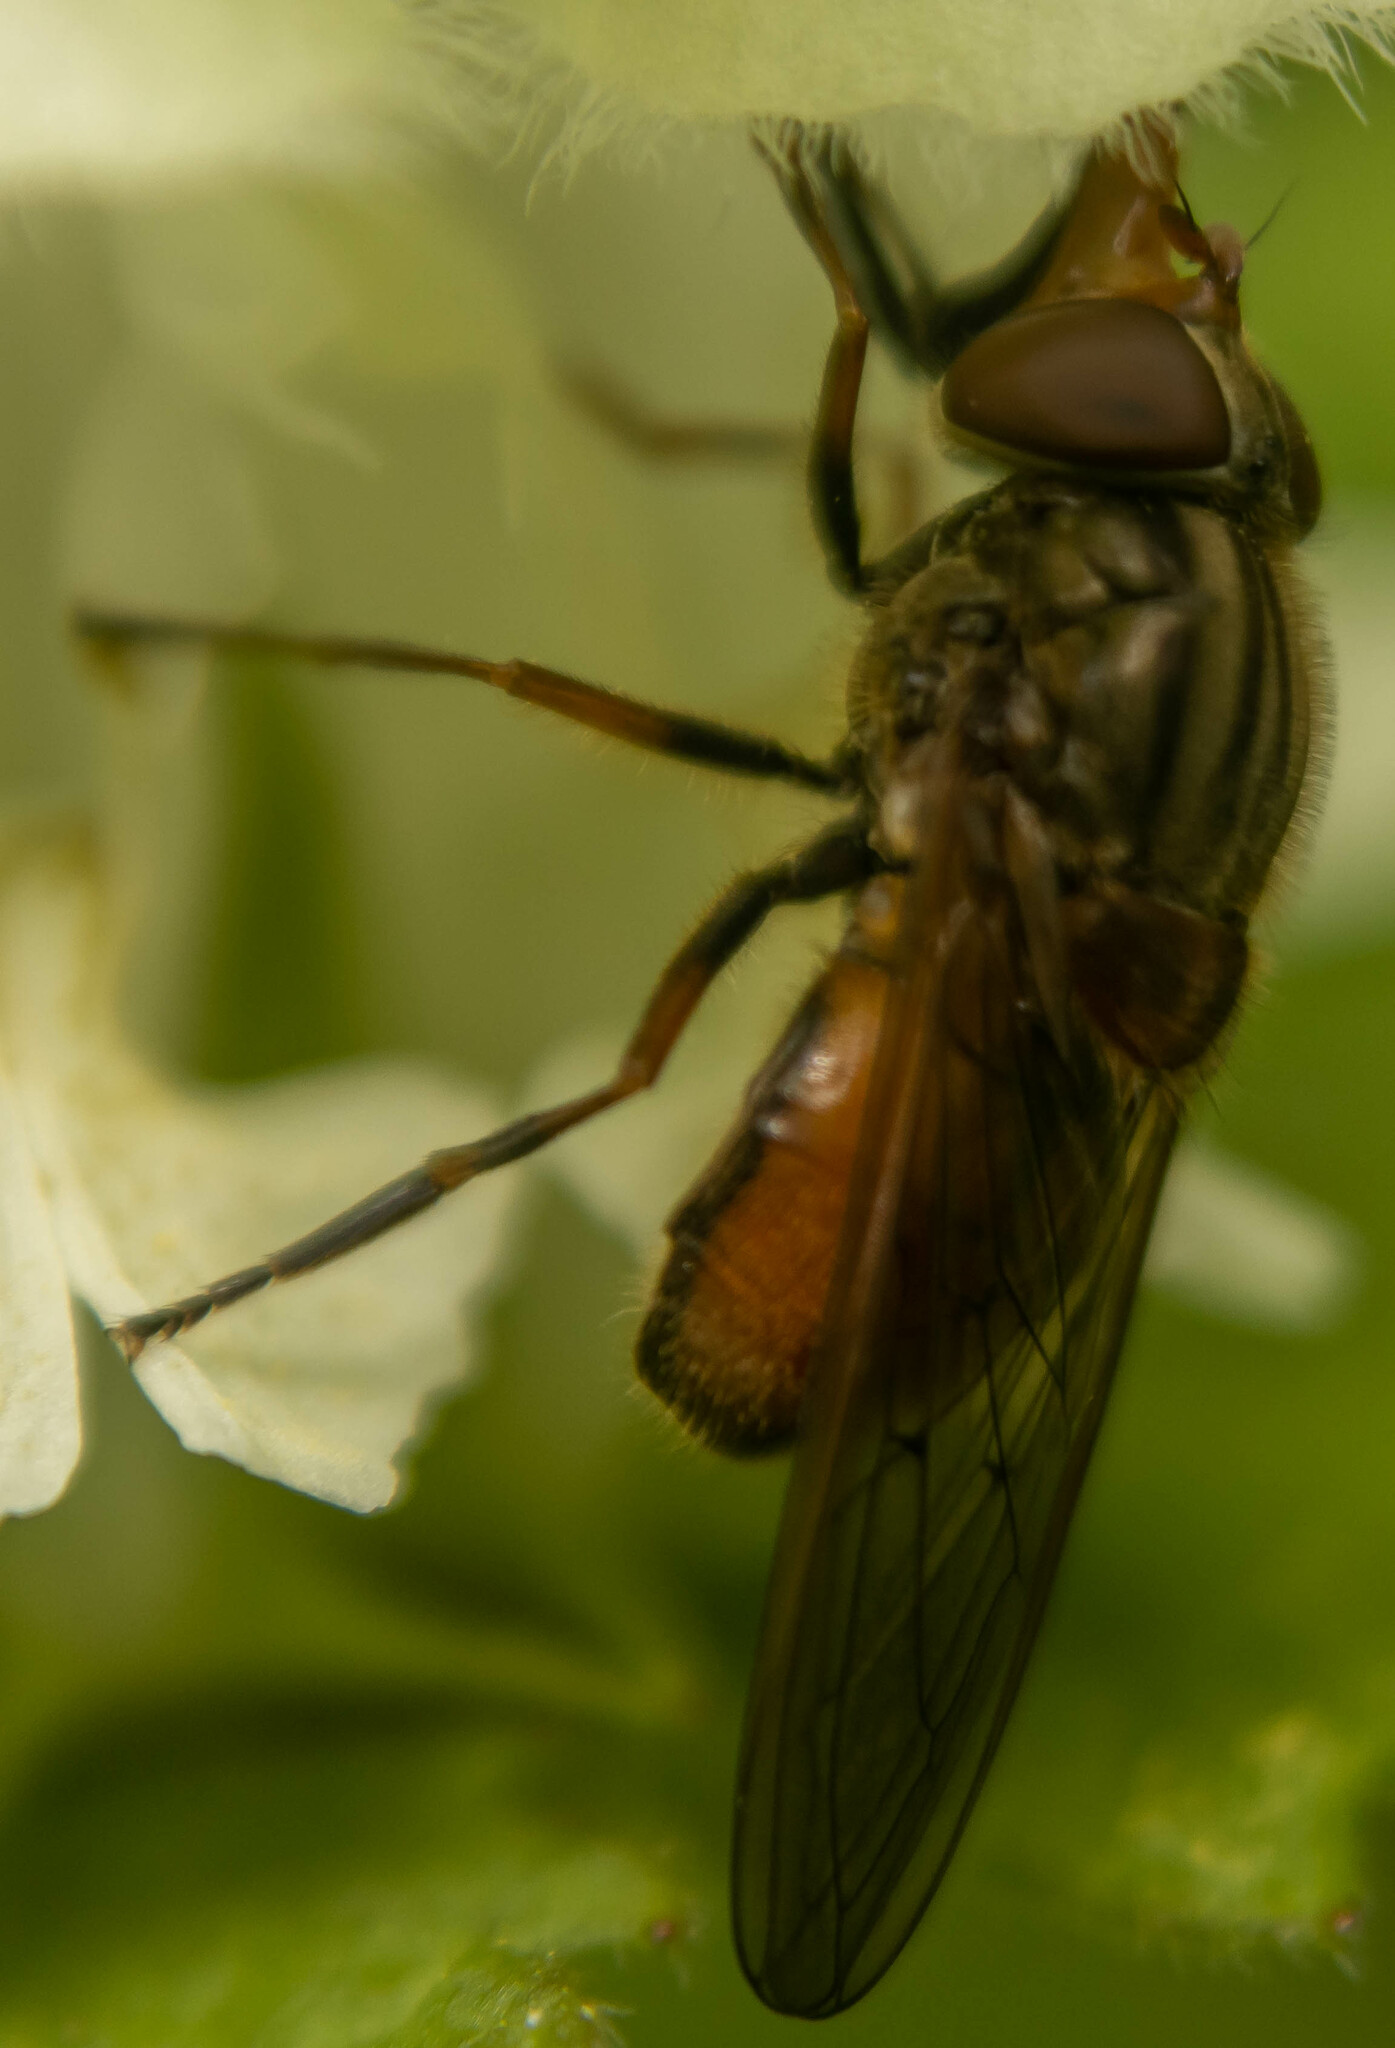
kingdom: Animalia
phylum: Arthropoda
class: Insecta
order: Diptera
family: Syrphidae
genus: Rhingia
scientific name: Rhingia campestris
